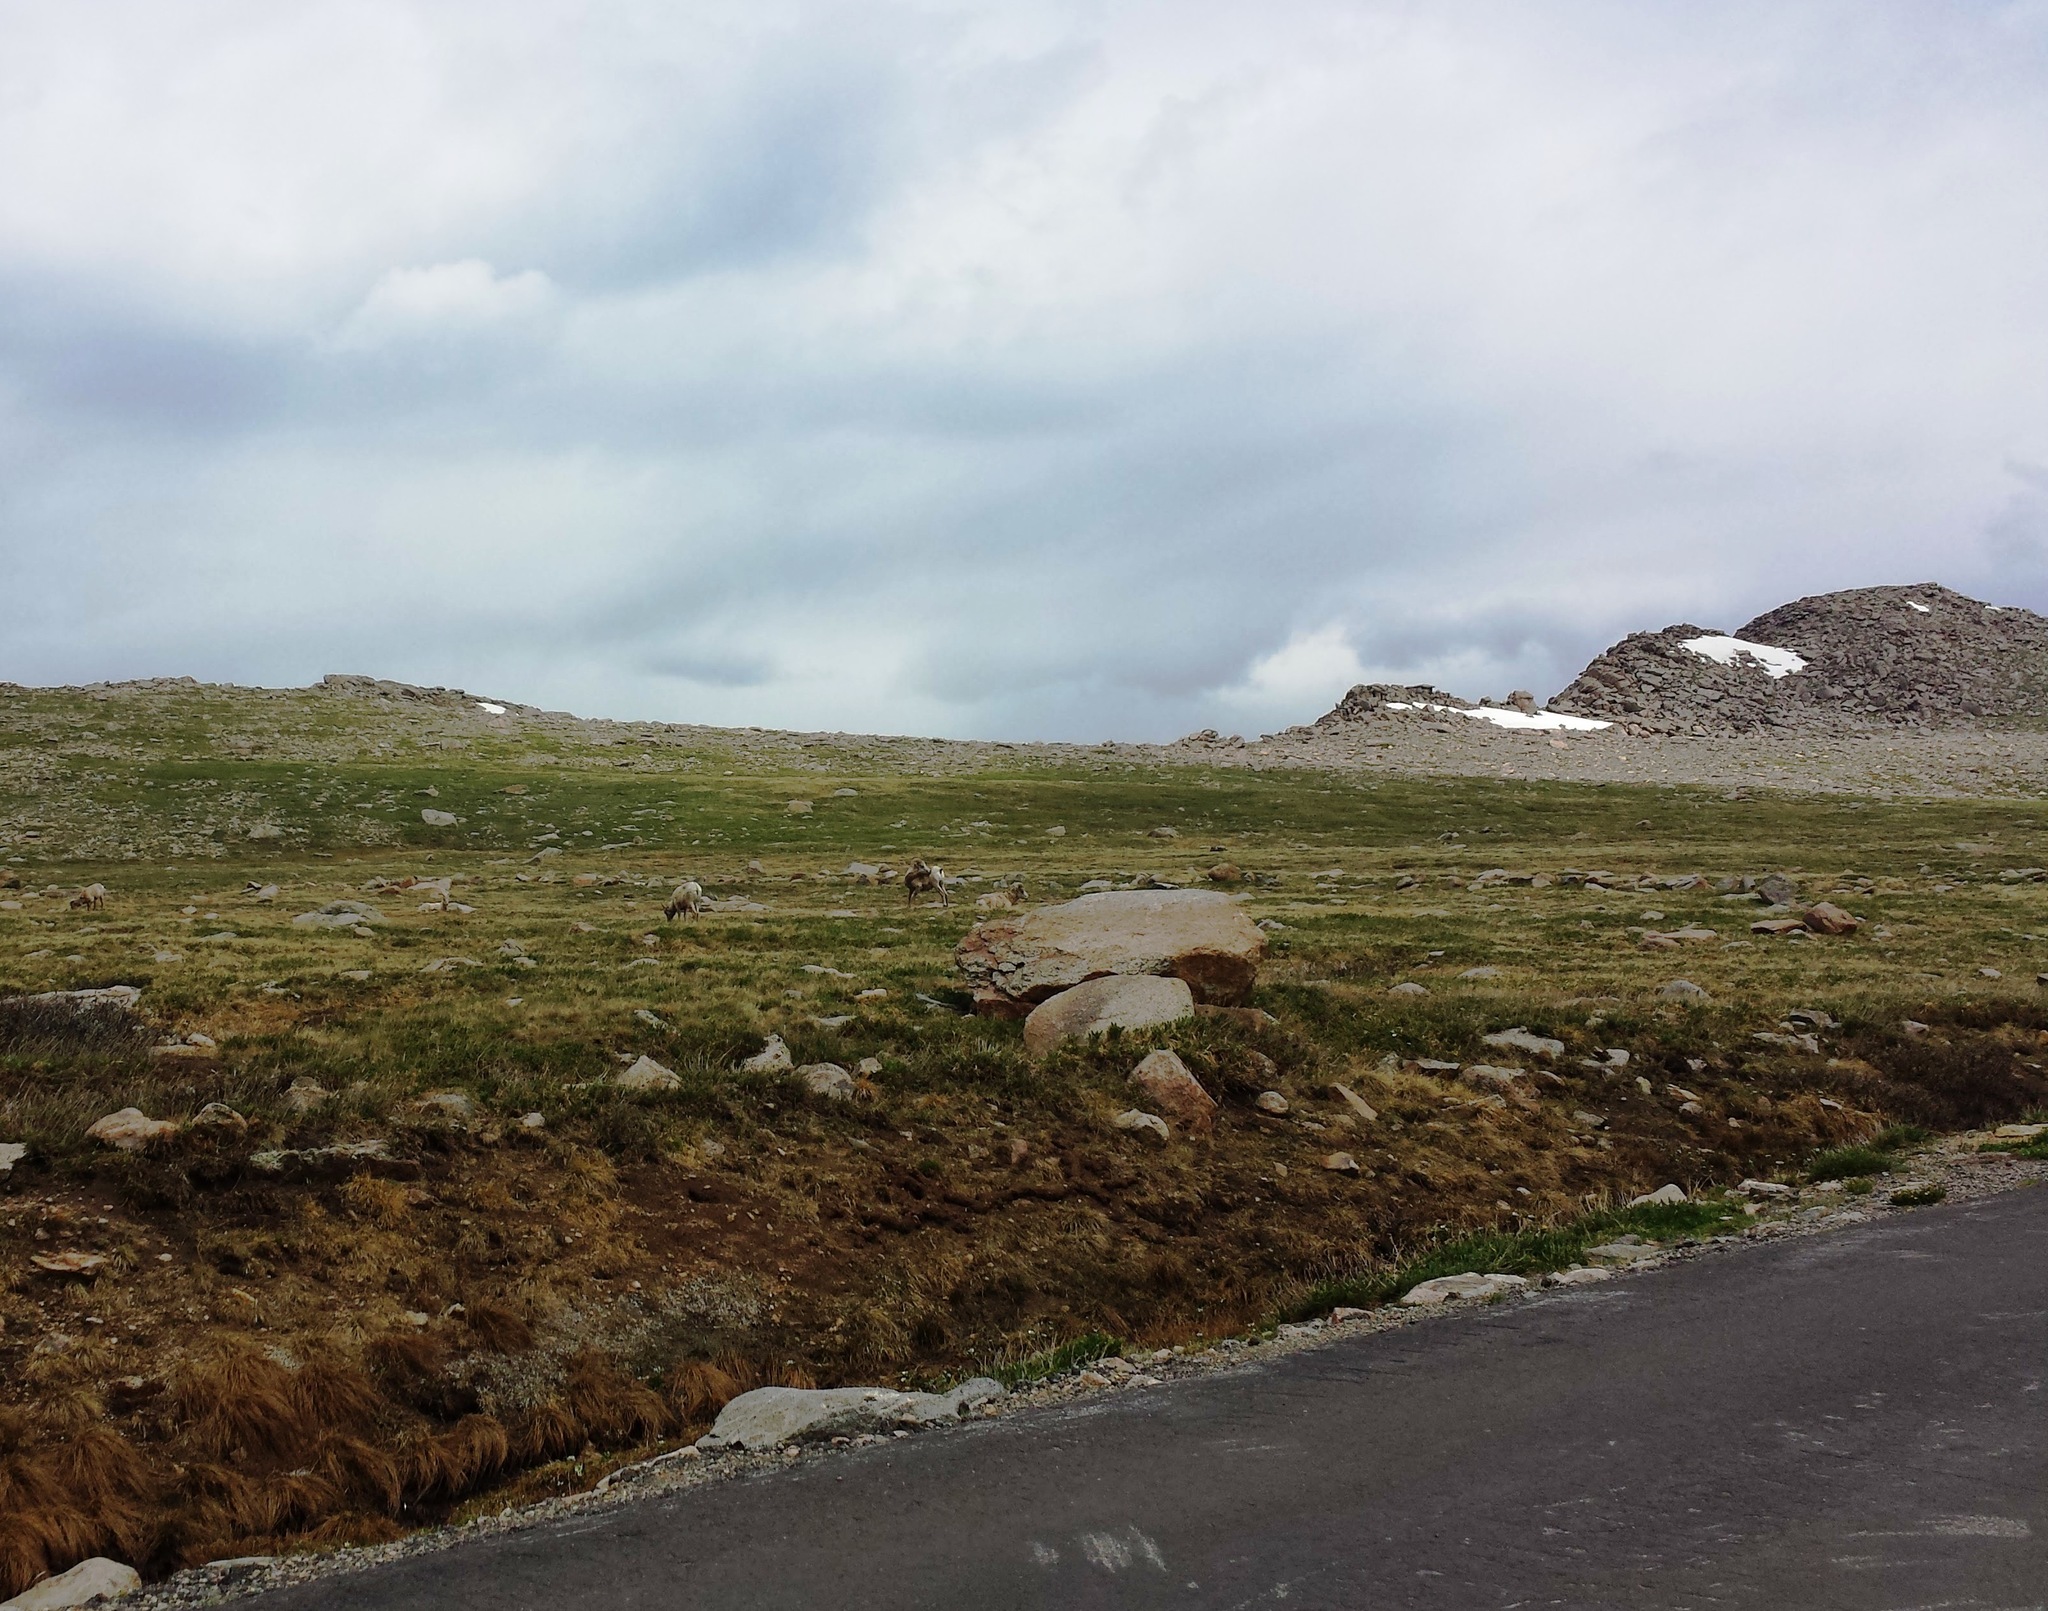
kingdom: Animalia
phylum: Chordata
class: Mammalia
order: Artiodactyla
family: Bovidae
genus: Ovis
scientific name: Ovis canadensis
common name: Bighorn sheep
